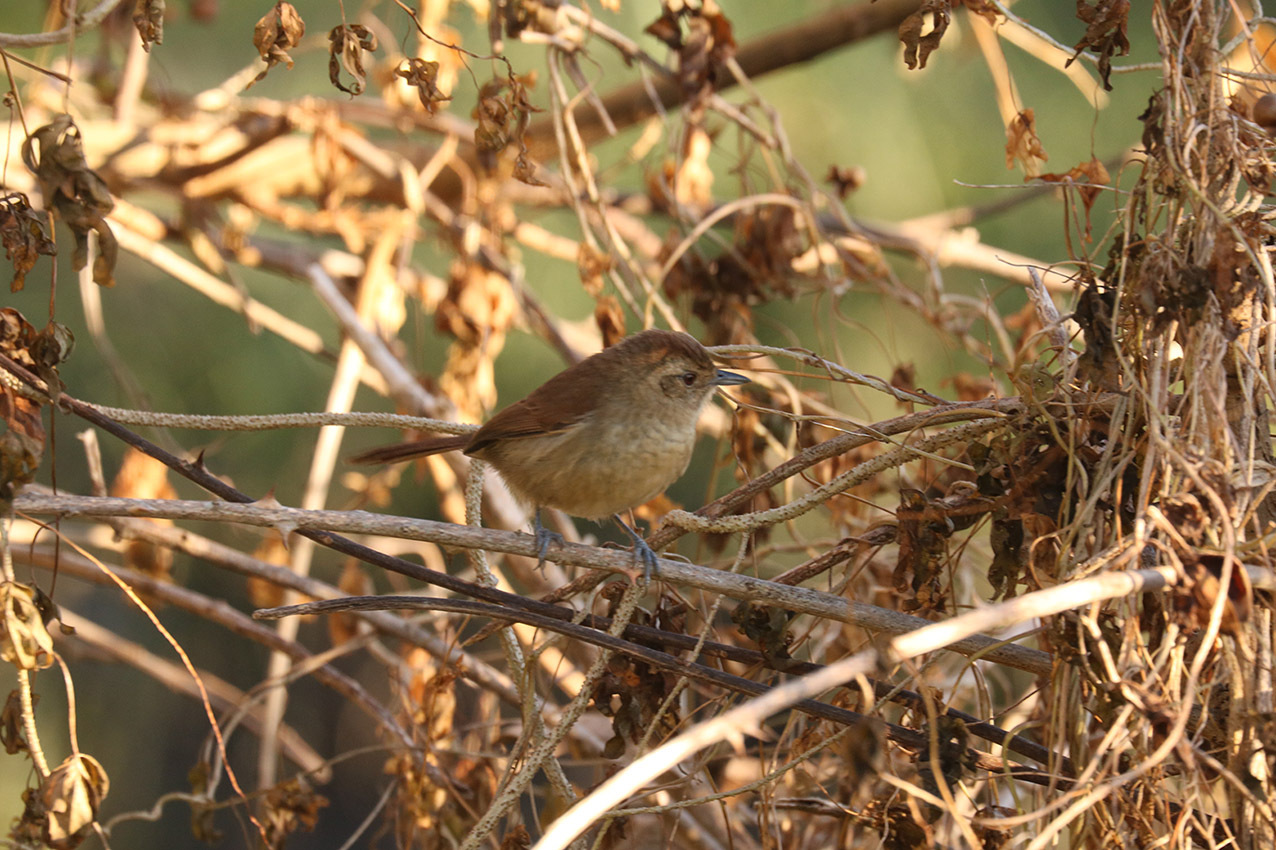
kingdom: Animalia
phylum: Chordata
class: Aves
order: Passeriformes
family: Thamnophilidae
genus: Thamnophilus
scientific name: Thamnophilus ruficapillus
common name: Rufous-capped antshrike
